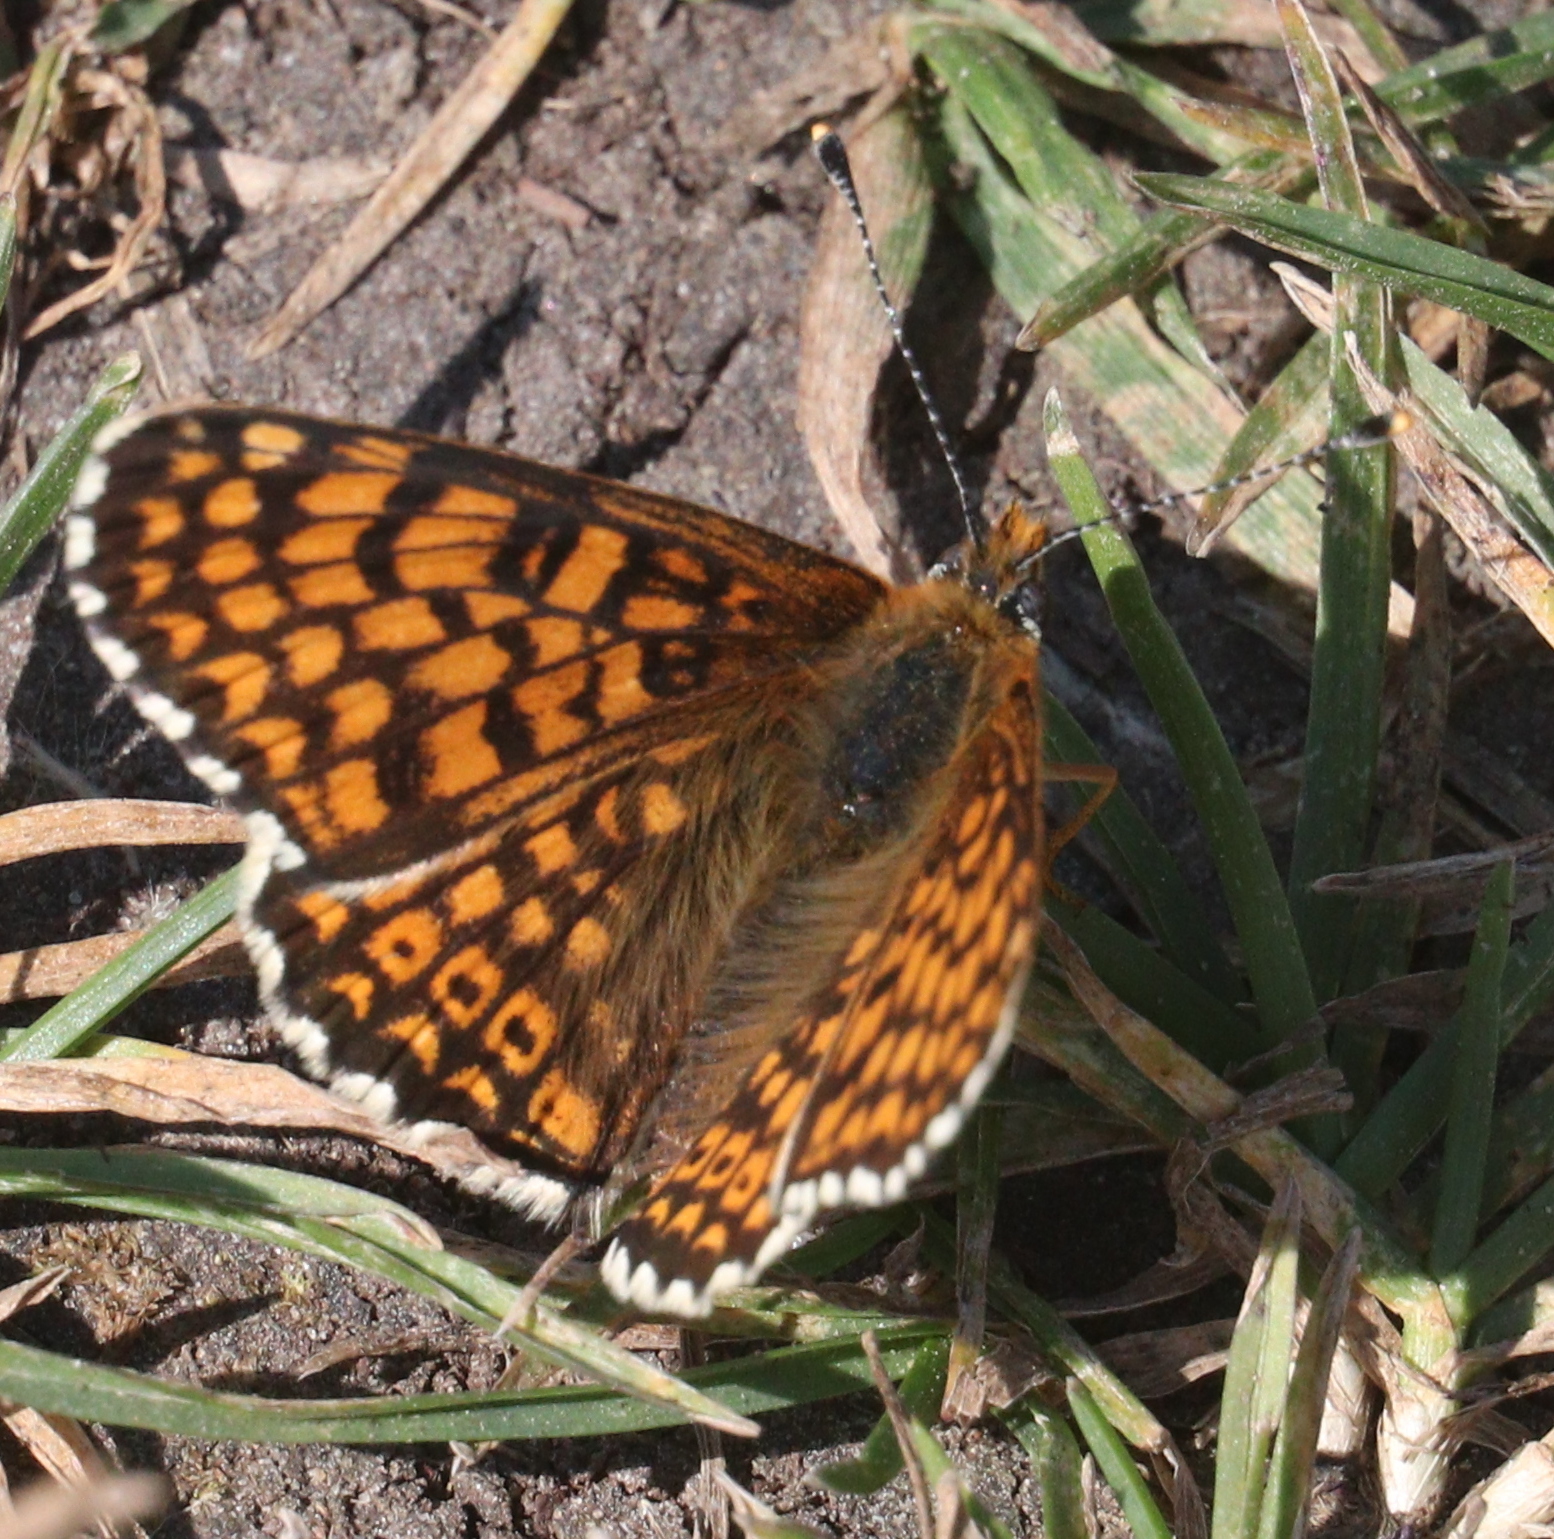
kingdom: Animalia
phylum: Arthropoda
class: Insecta
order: Lepidoptera
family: Nymphalidae
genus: Melitaea
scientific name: Melitaea cinxia
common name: Glanville fritillary
